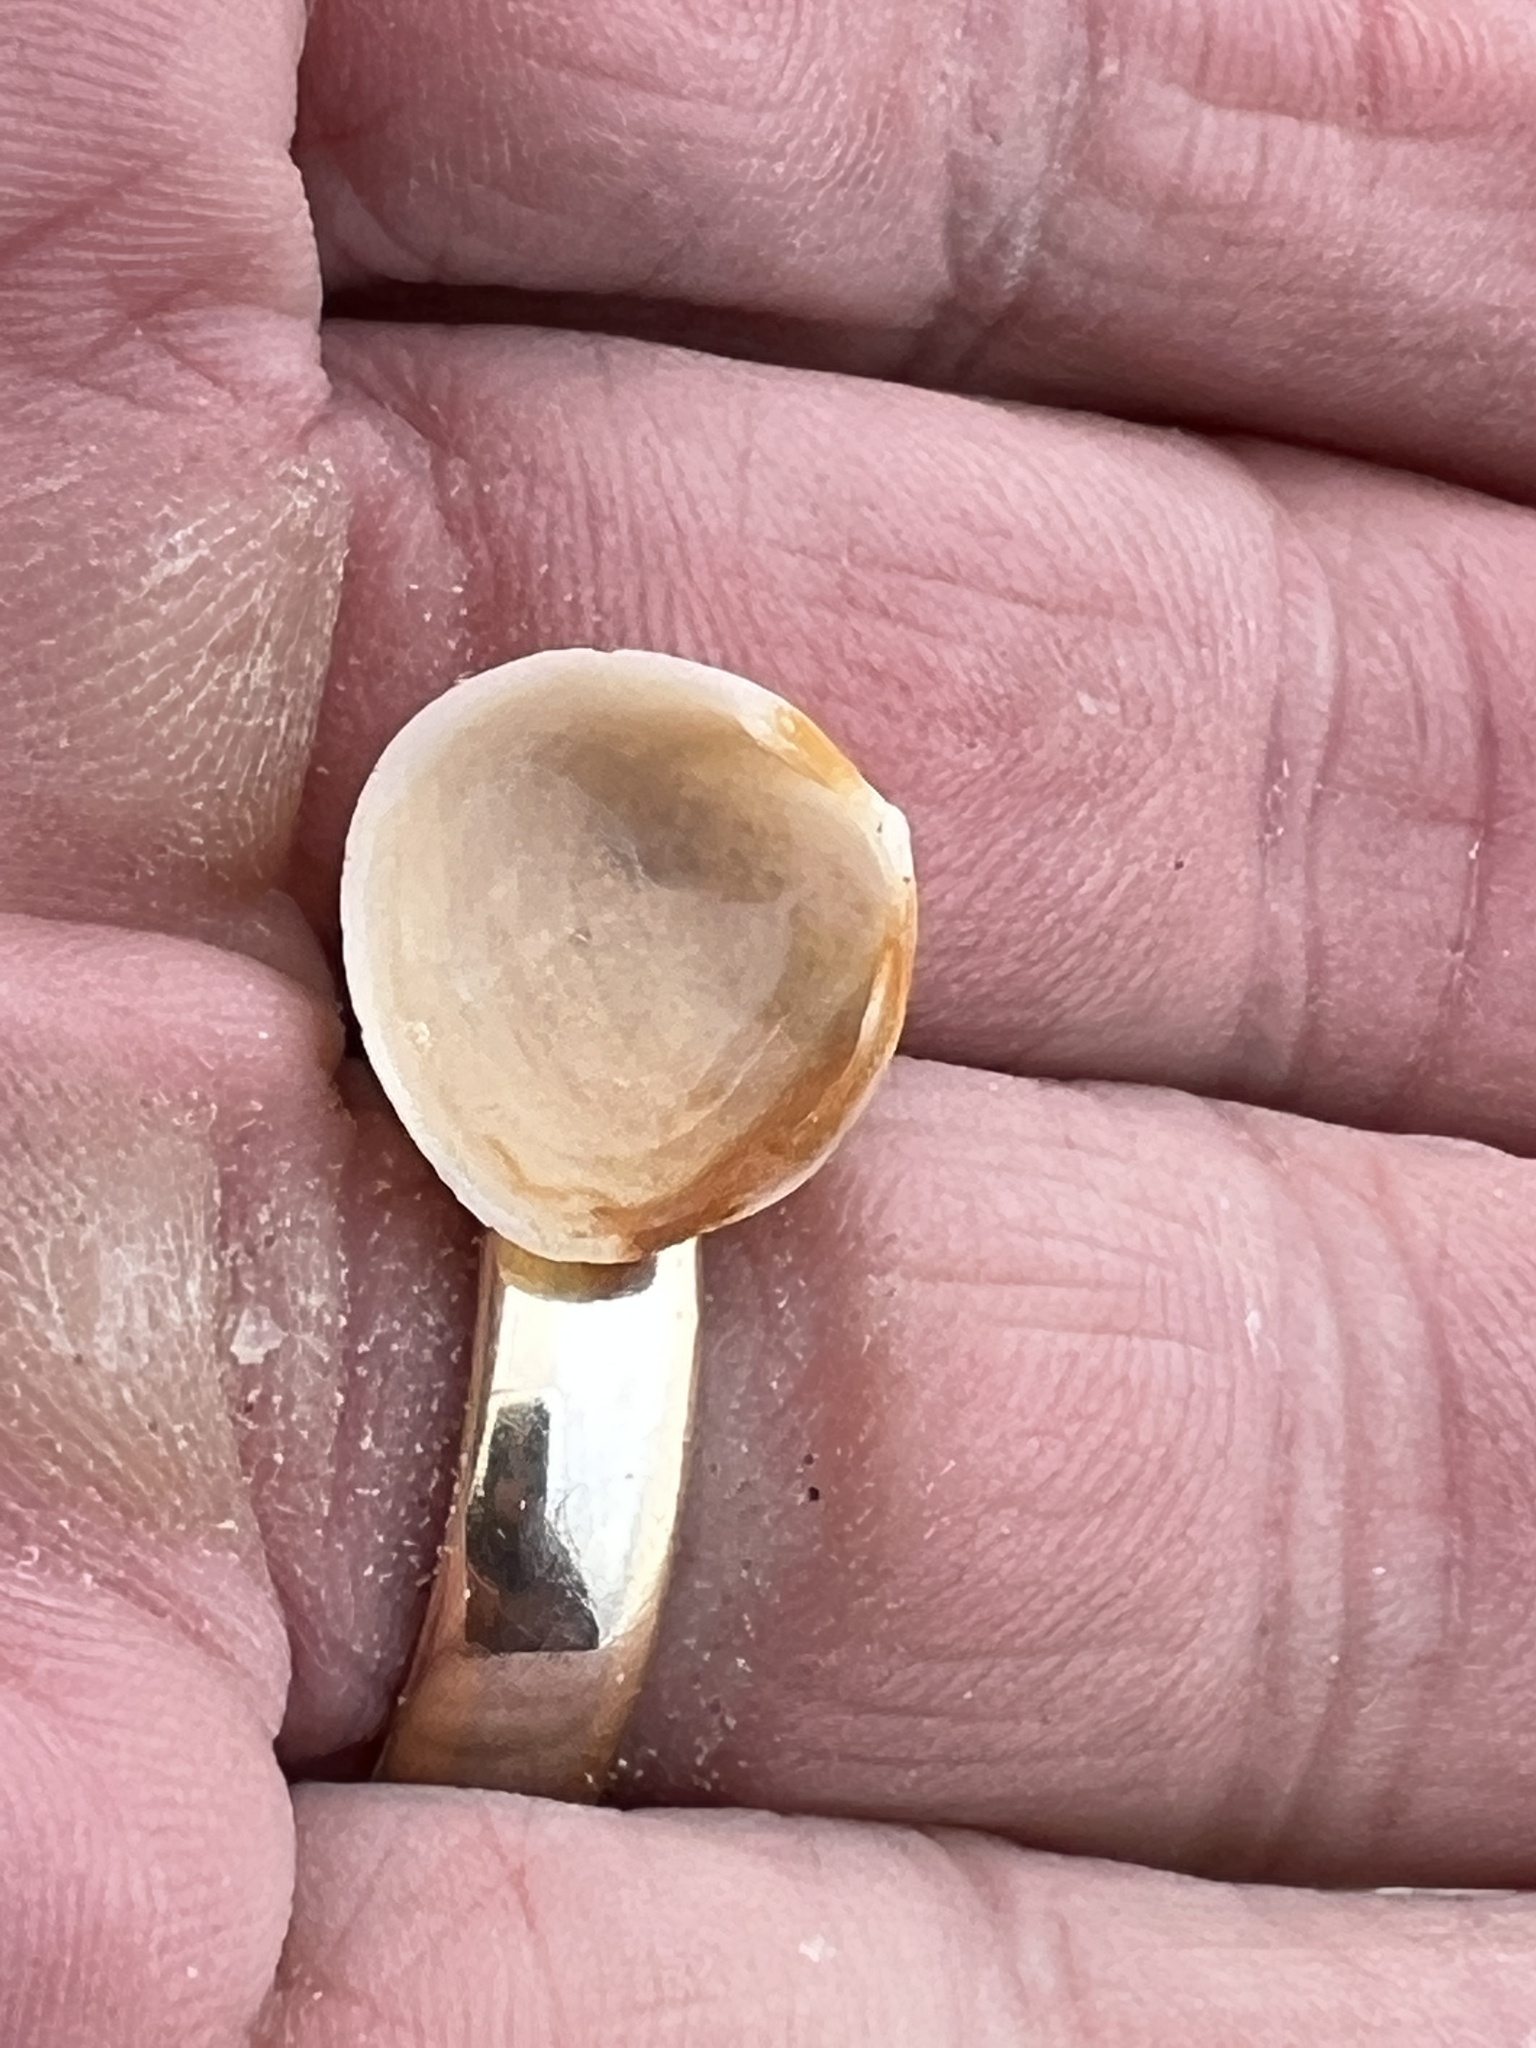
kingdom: Animalia
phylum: Mollusca
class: Bivalvia
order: Cardiida
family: Cardiidae
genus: Laevicardium
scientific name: Laevicardium mortoni
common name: Morton eggcockle
